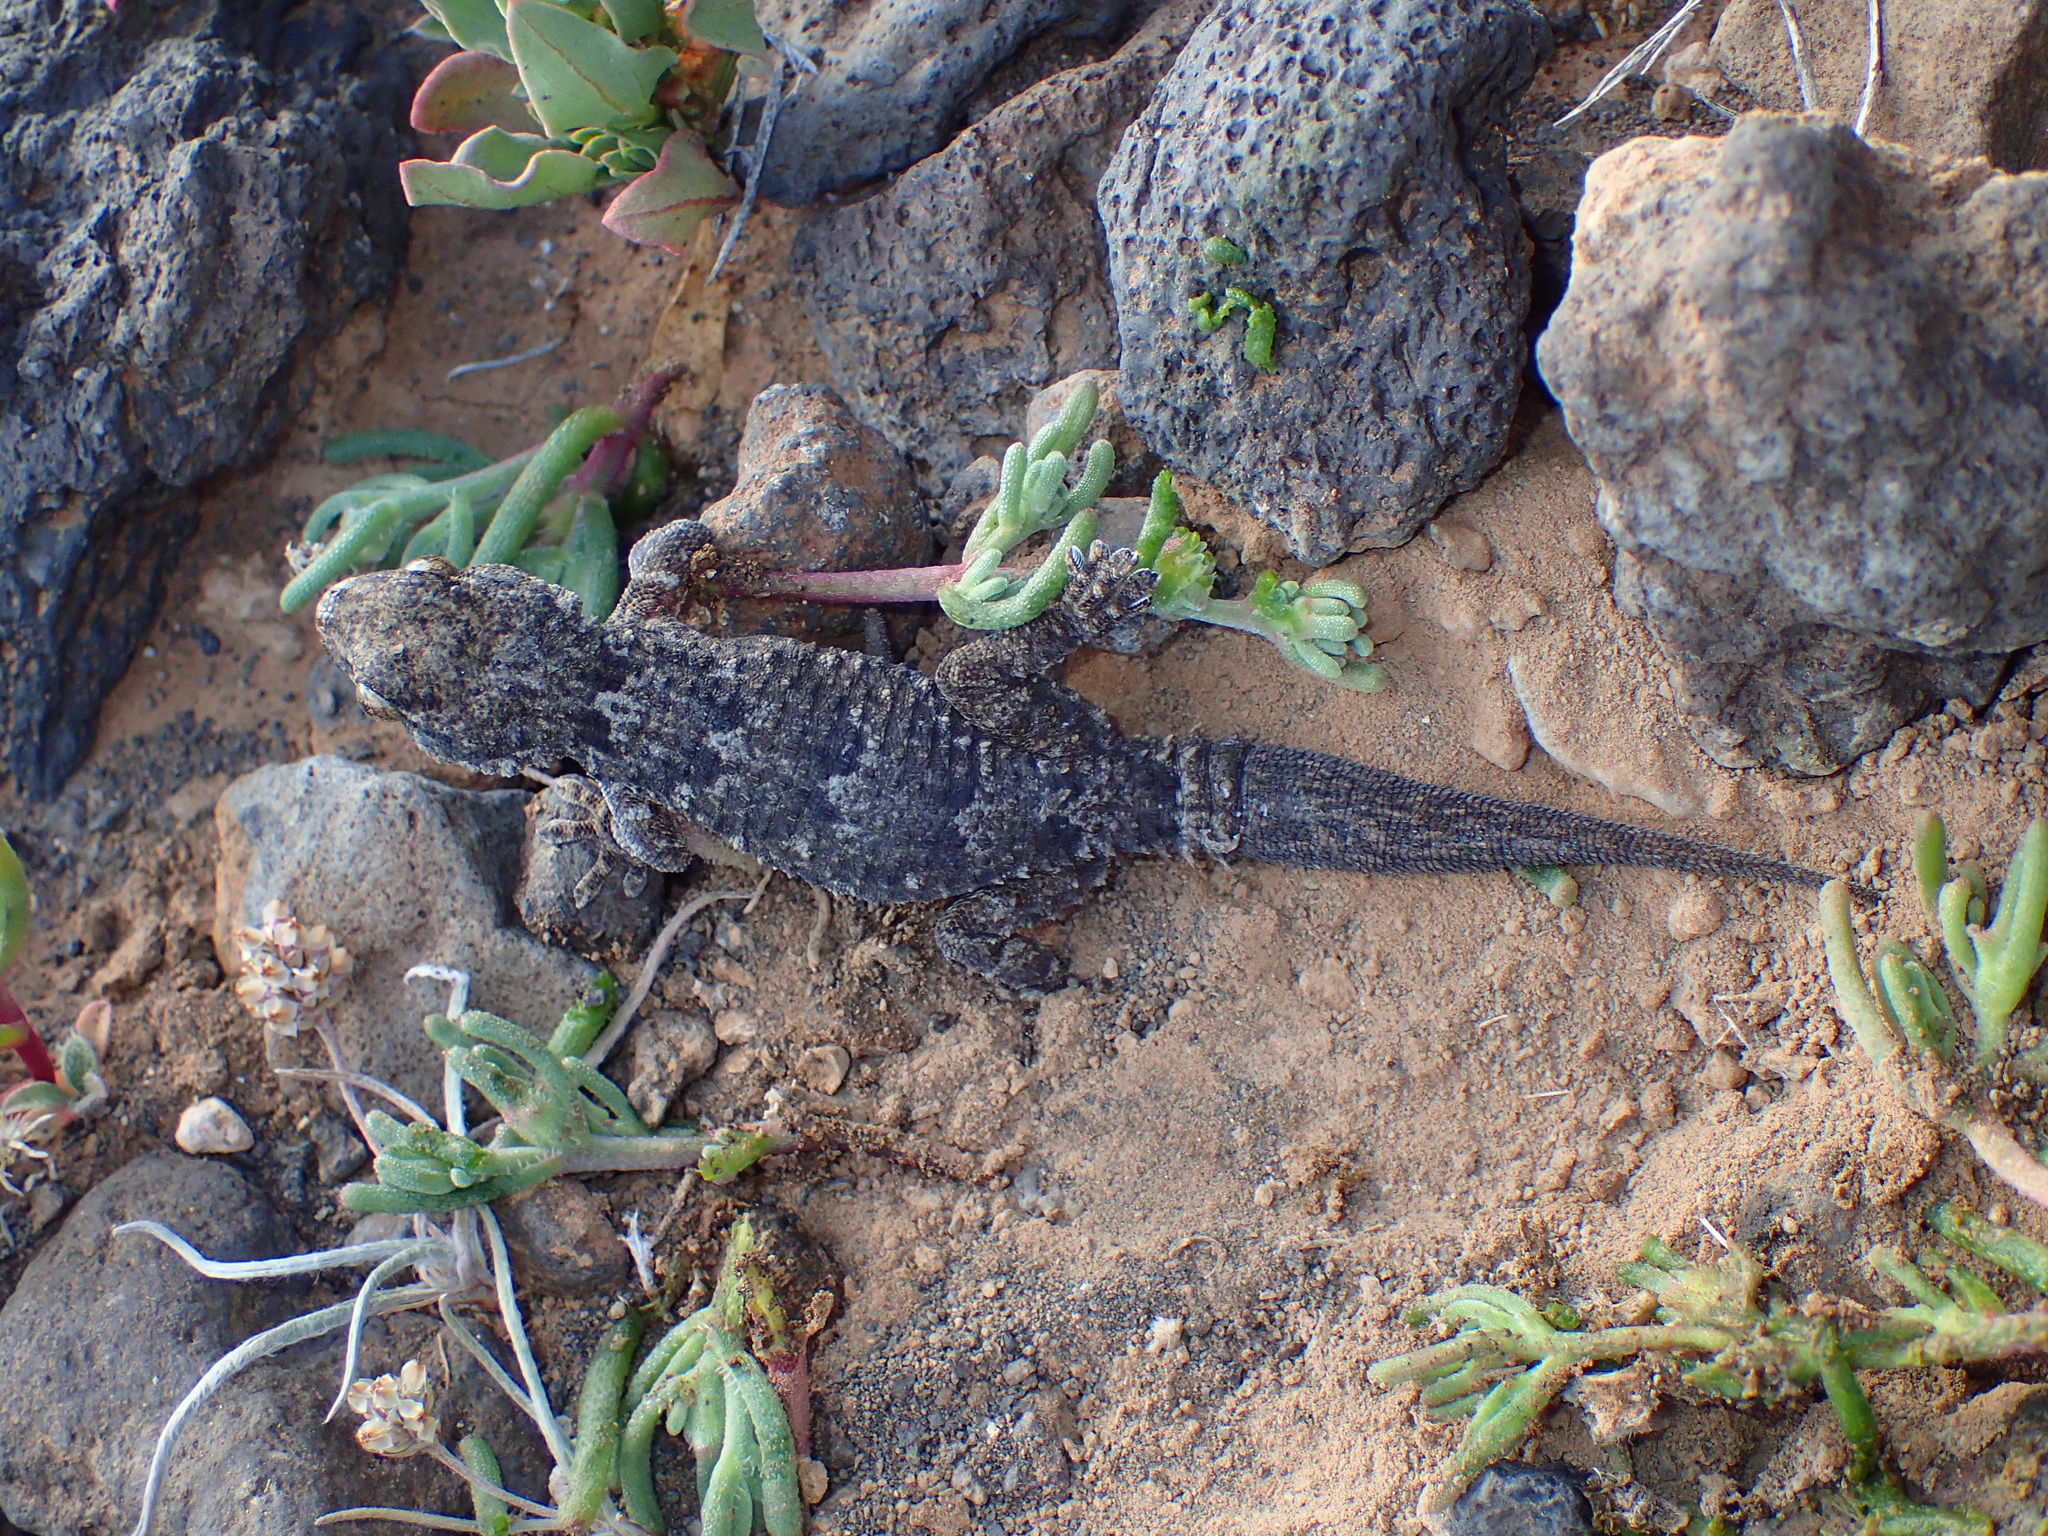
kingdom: Animalia
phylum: Chordata
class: Squamata
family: Phyllodactylidae
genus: Tarentola
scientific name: Tarentola angustimentalis
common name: East canary gecko
